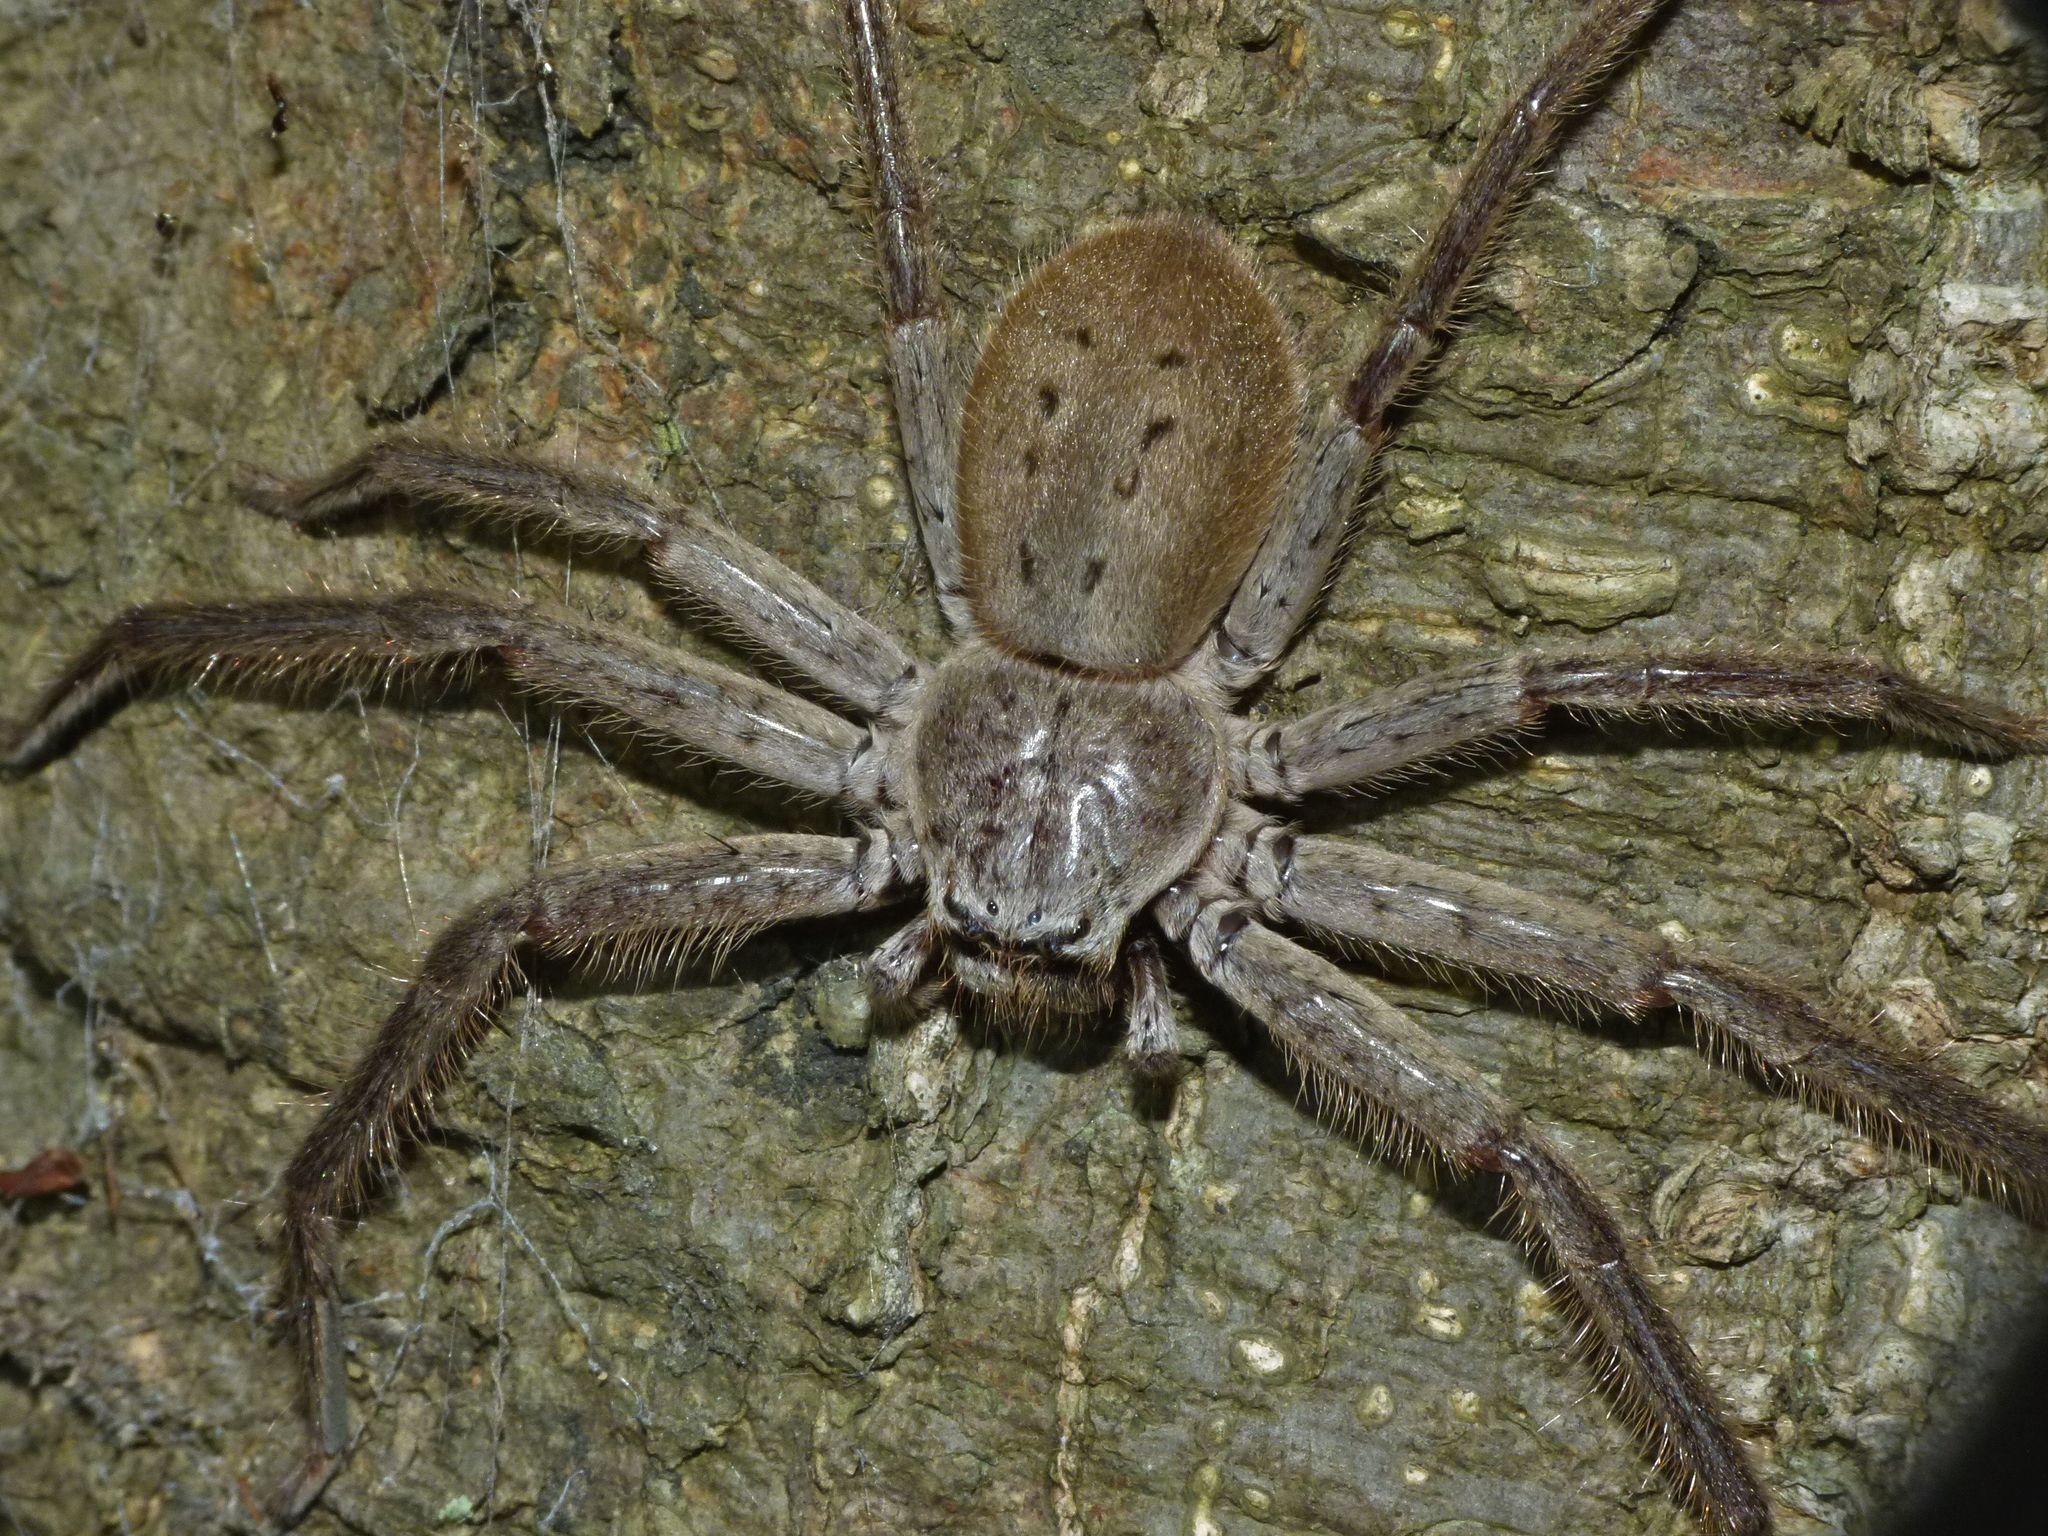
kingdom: Animalia
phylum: Arthropoda
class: Arachnida
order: Araneae
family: Sparassidae
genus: Isopeda
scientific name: Isopeda villosa
